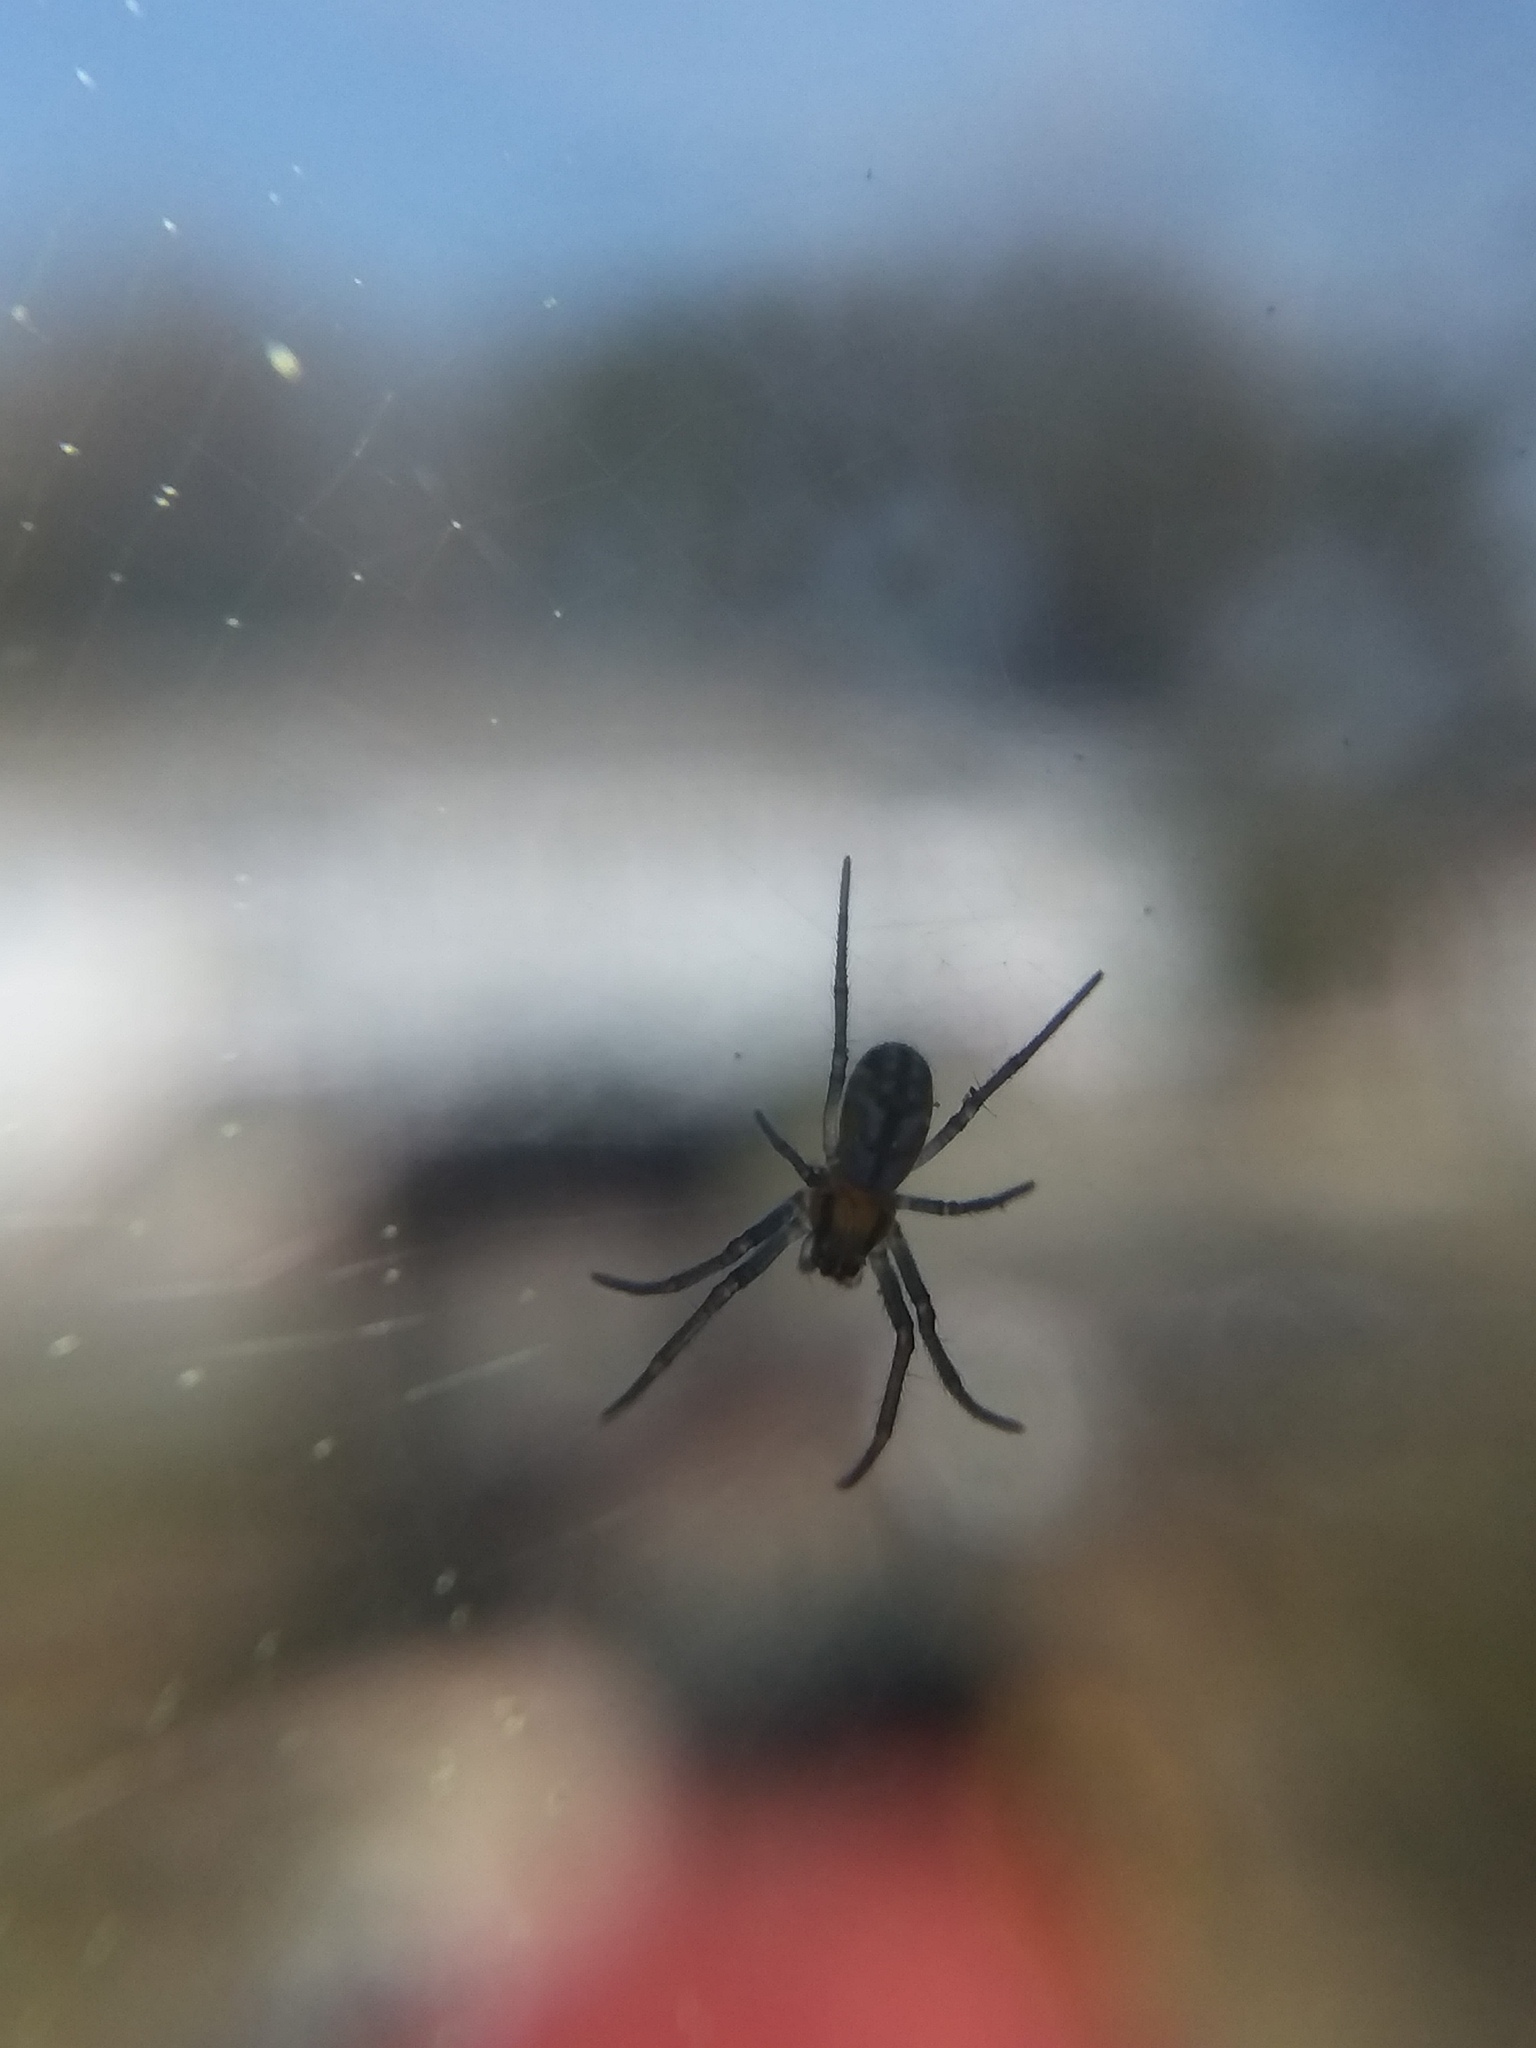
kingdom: Animalia
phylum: Arthropoda
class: Arachnida
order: Araneae
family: Araneidae
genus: Trichonephila
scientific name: Trichonephila clavipes
